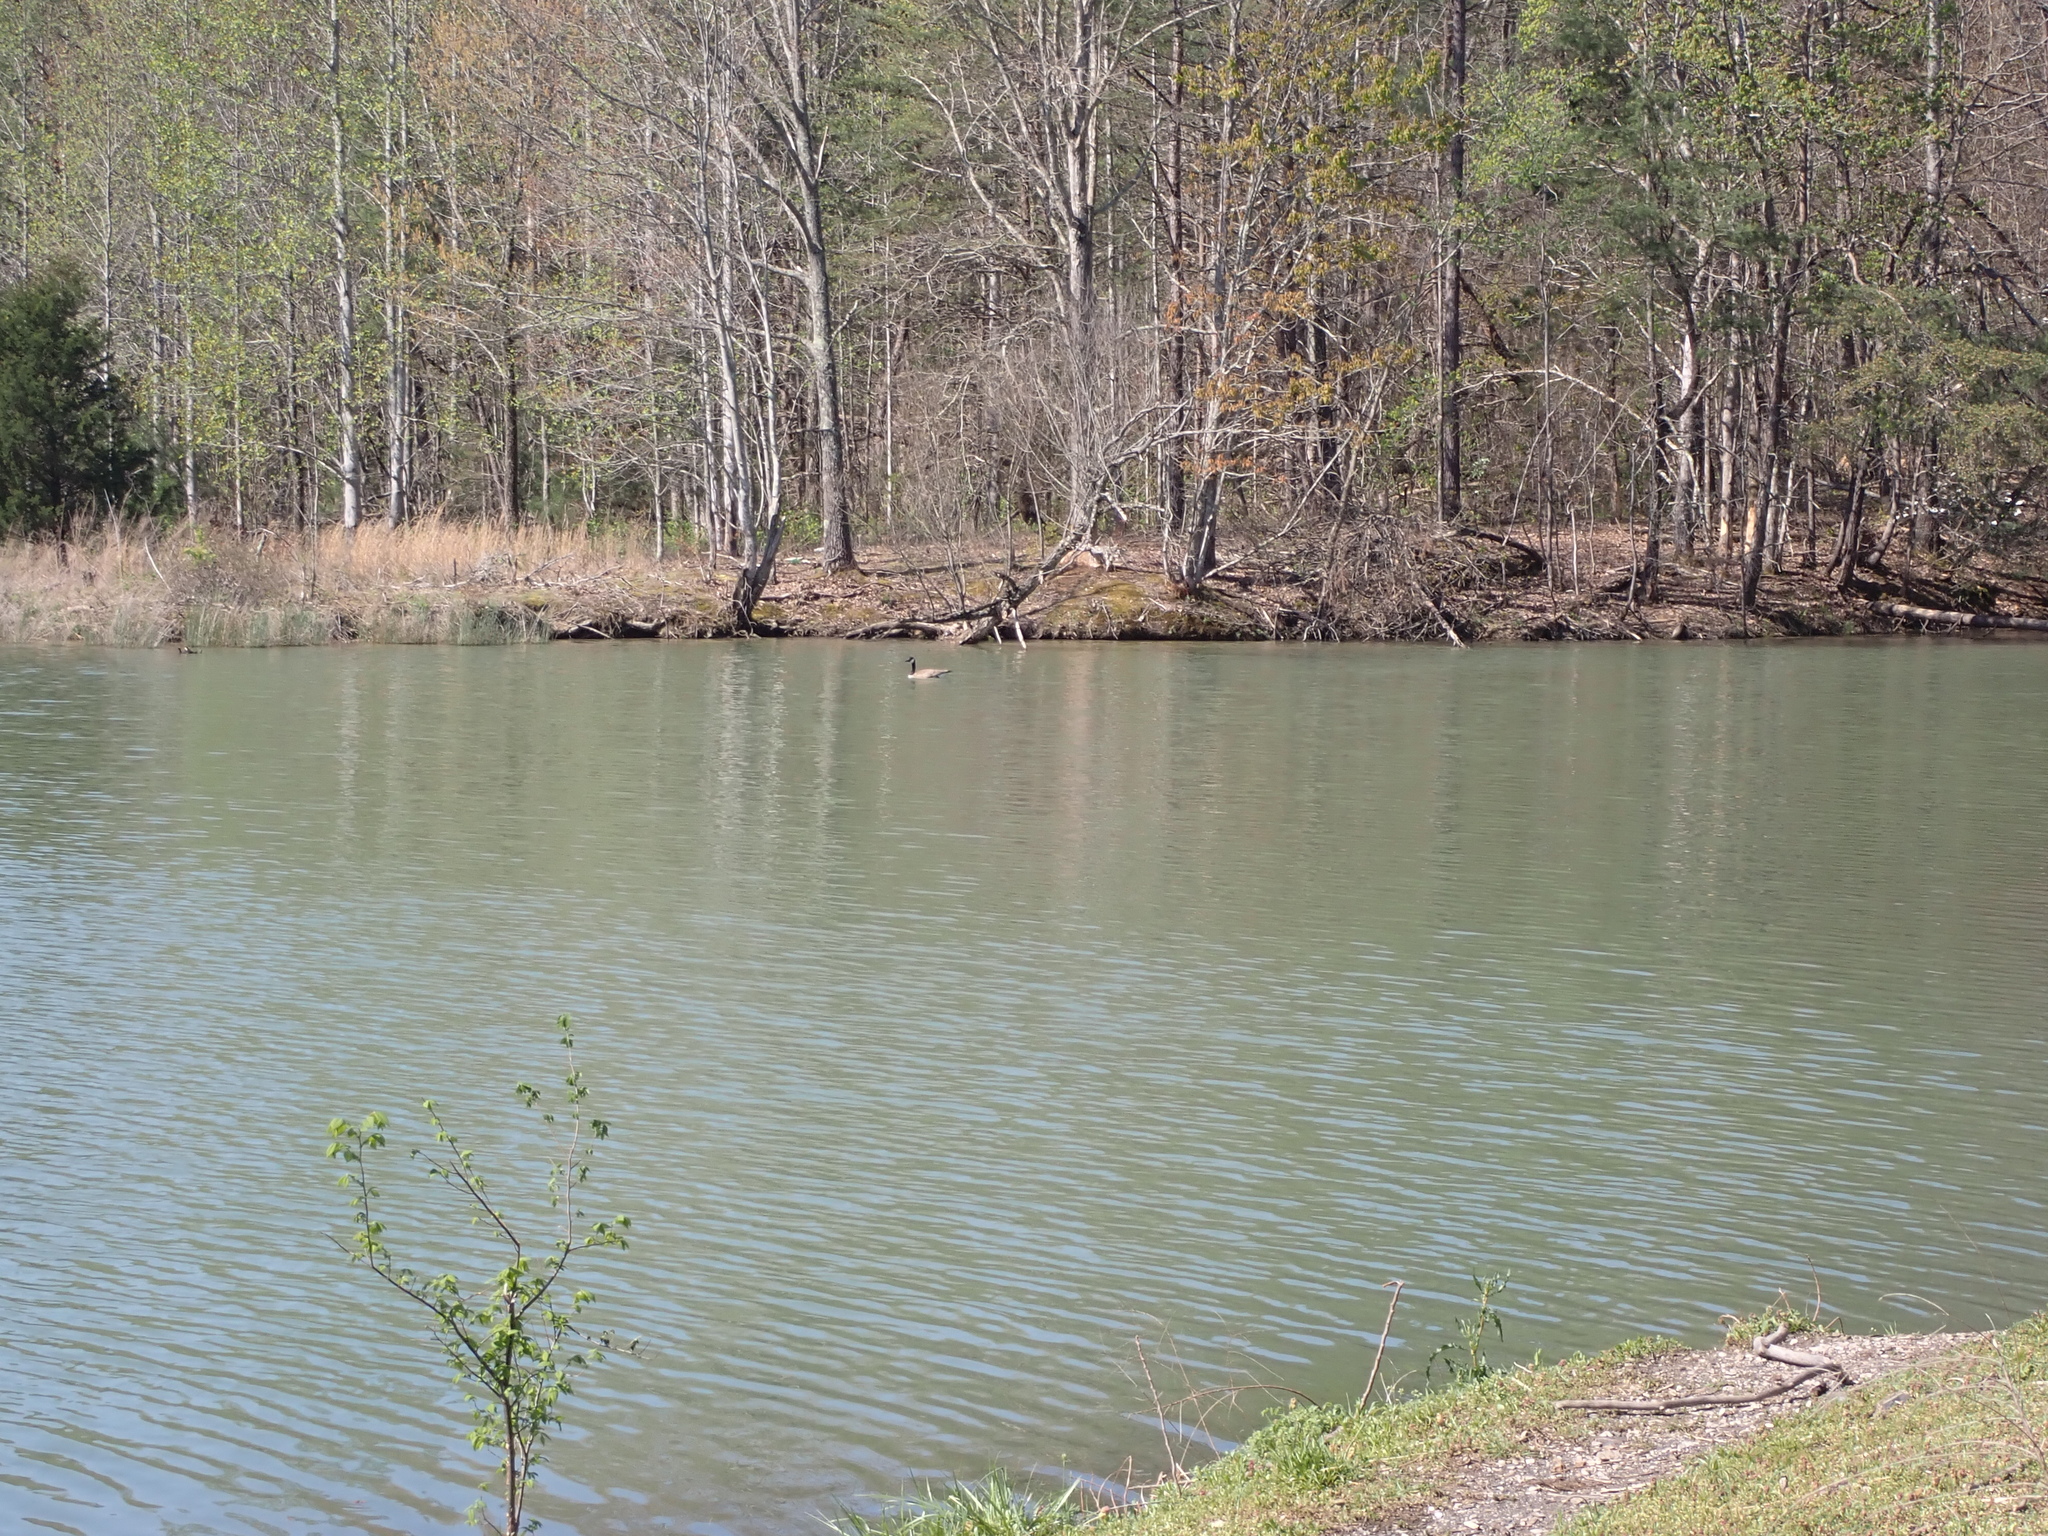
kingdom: Animalia
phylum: Chordata
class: Aves
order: Anseriformes
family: Anatidae
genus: Branta
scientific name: Branta canadensis
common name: Canada goose
